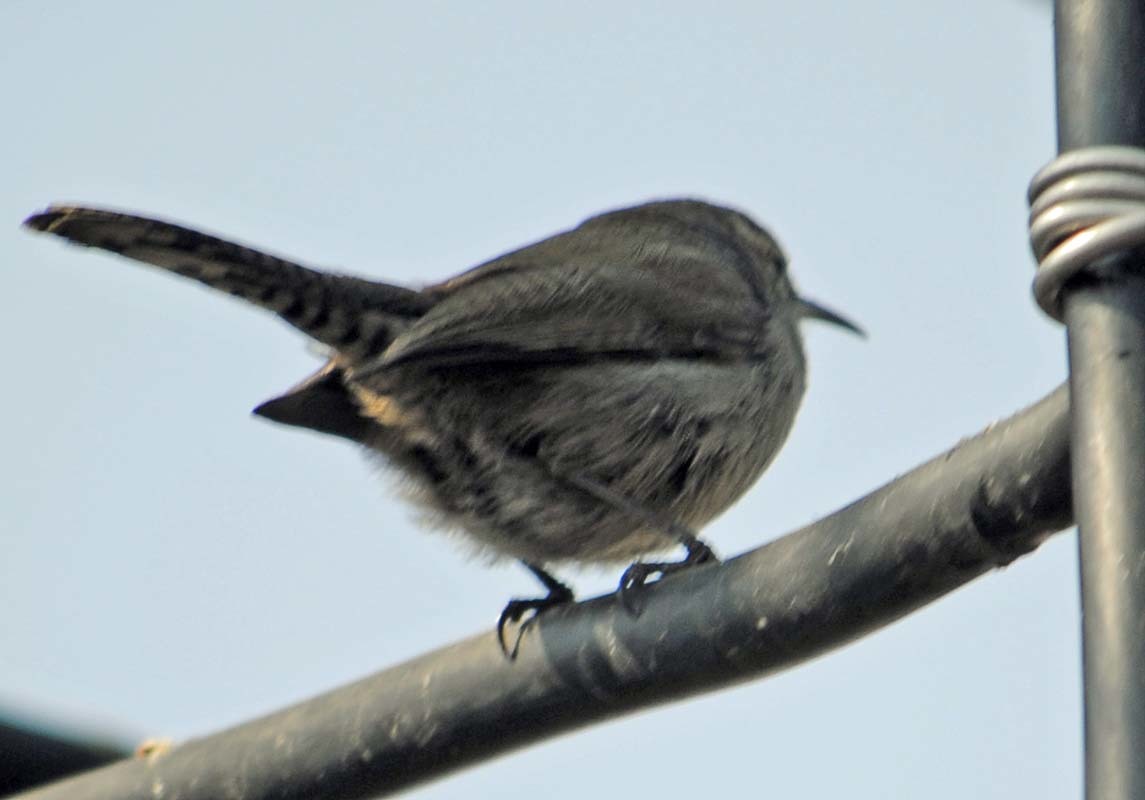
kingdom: Animalia
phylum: Chordata
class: Aves
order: Passeriformes
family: Troglodytidae
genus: Thryomanes
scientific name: Thryomanes bewickii
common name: Bewick's wren
